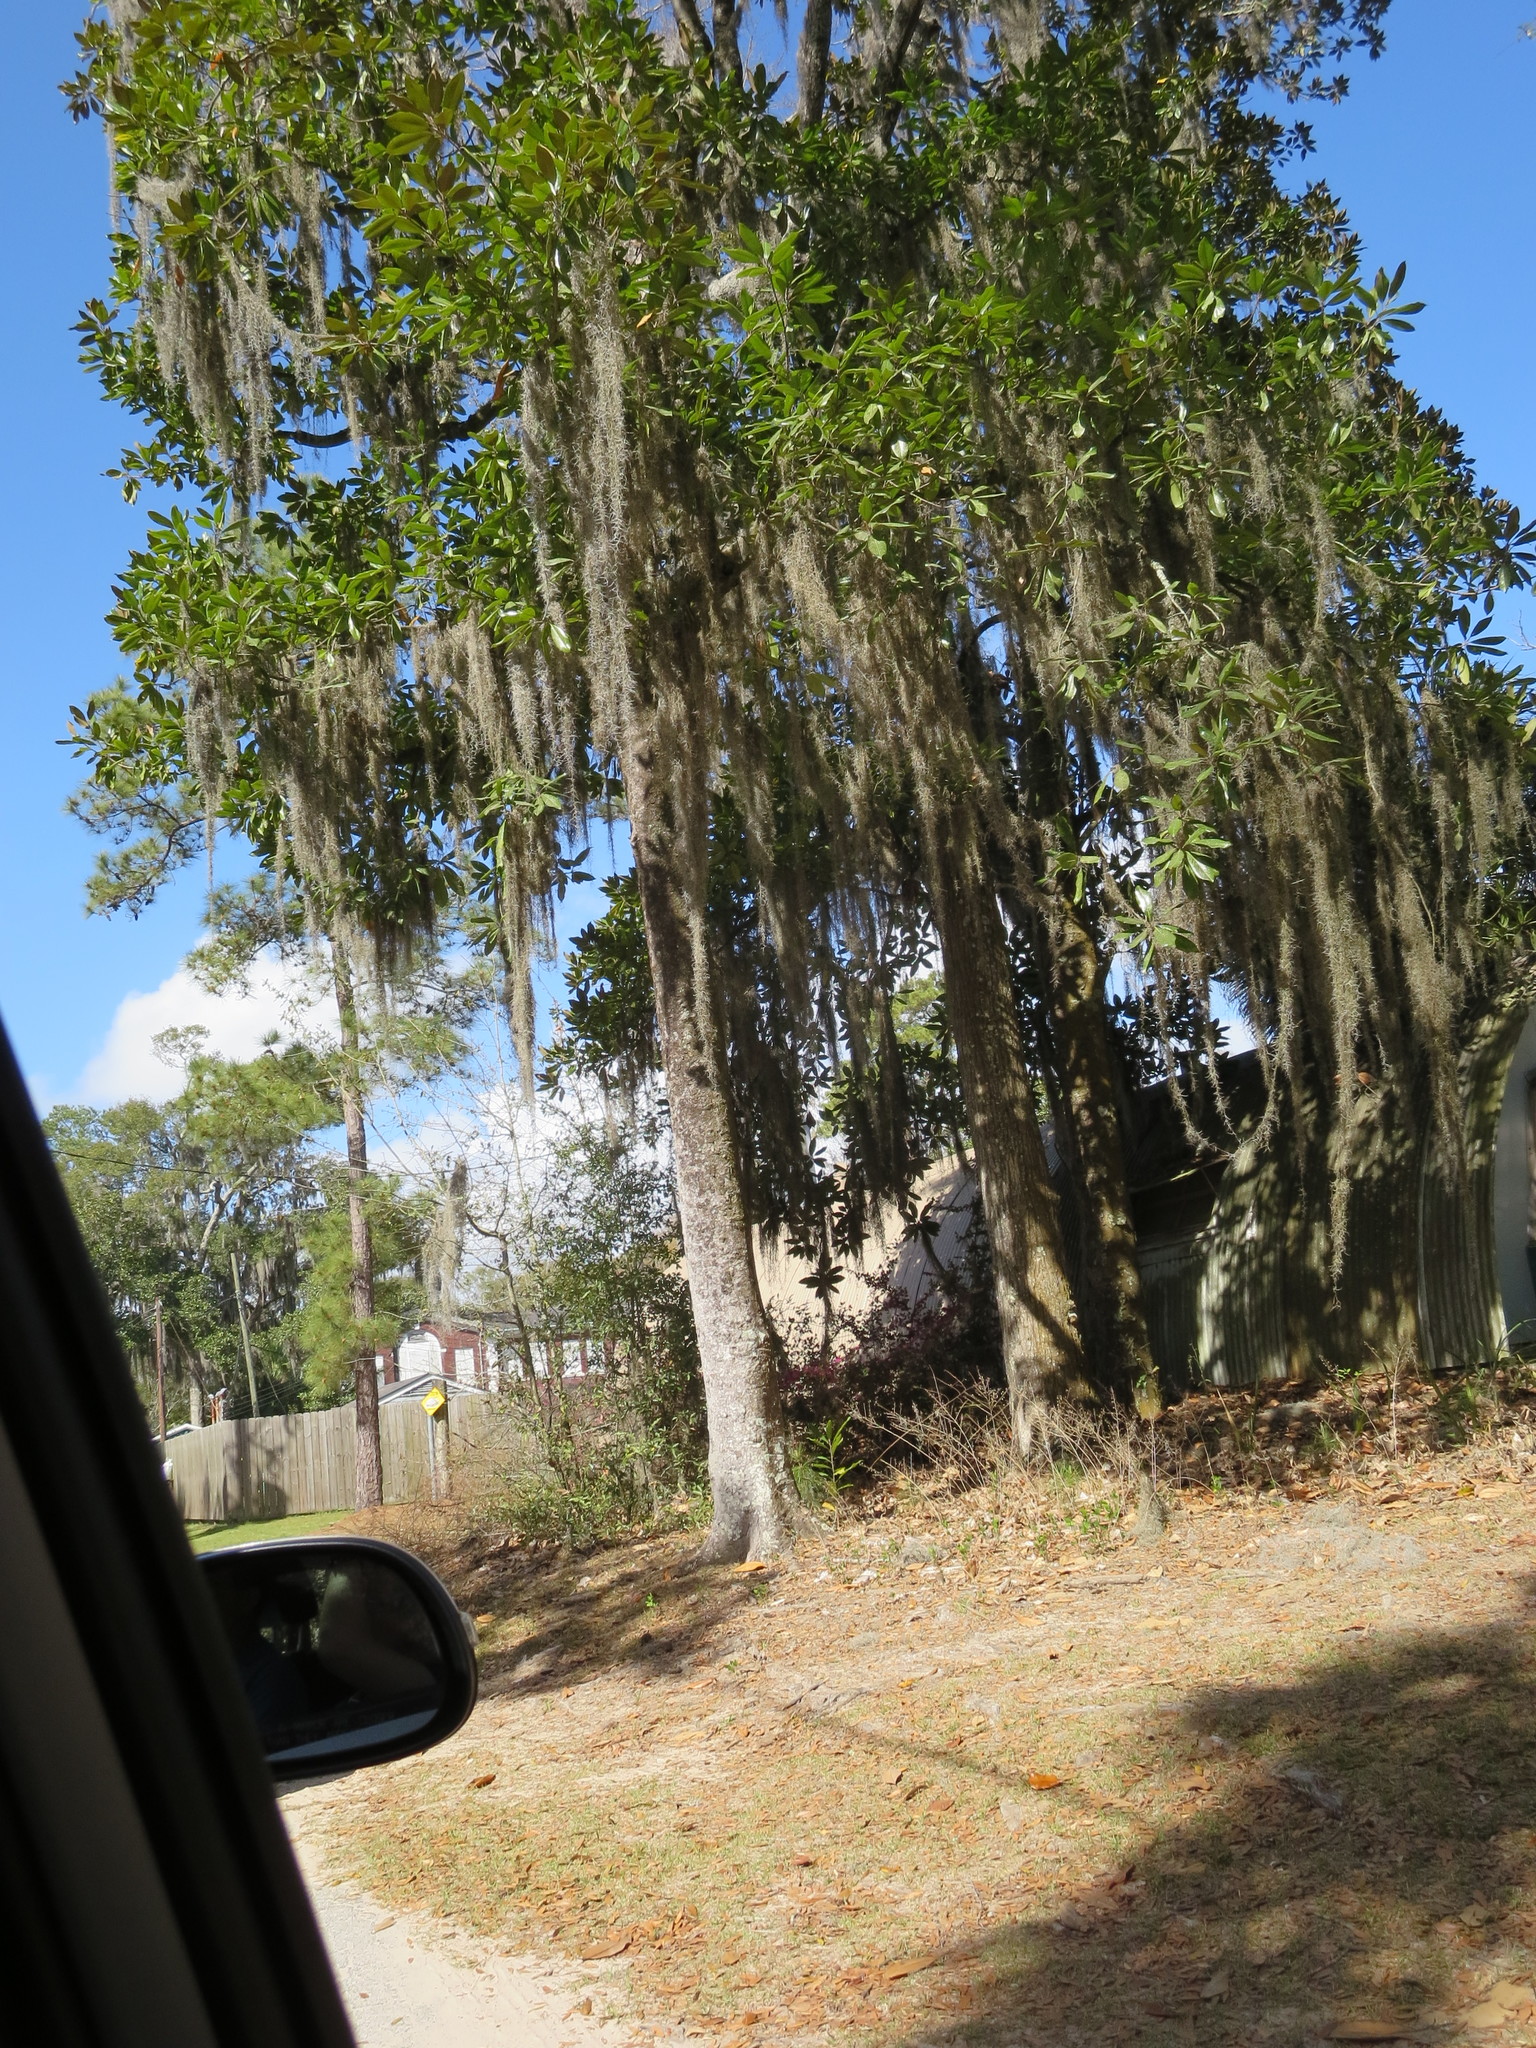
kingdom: Plantae
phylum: Tracheophyta
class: Magnoliopsida
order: Magnoliales
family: Magnoliaceae
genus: Magnolia
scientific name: Magnolia grandiflora
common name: Southern magnolia
